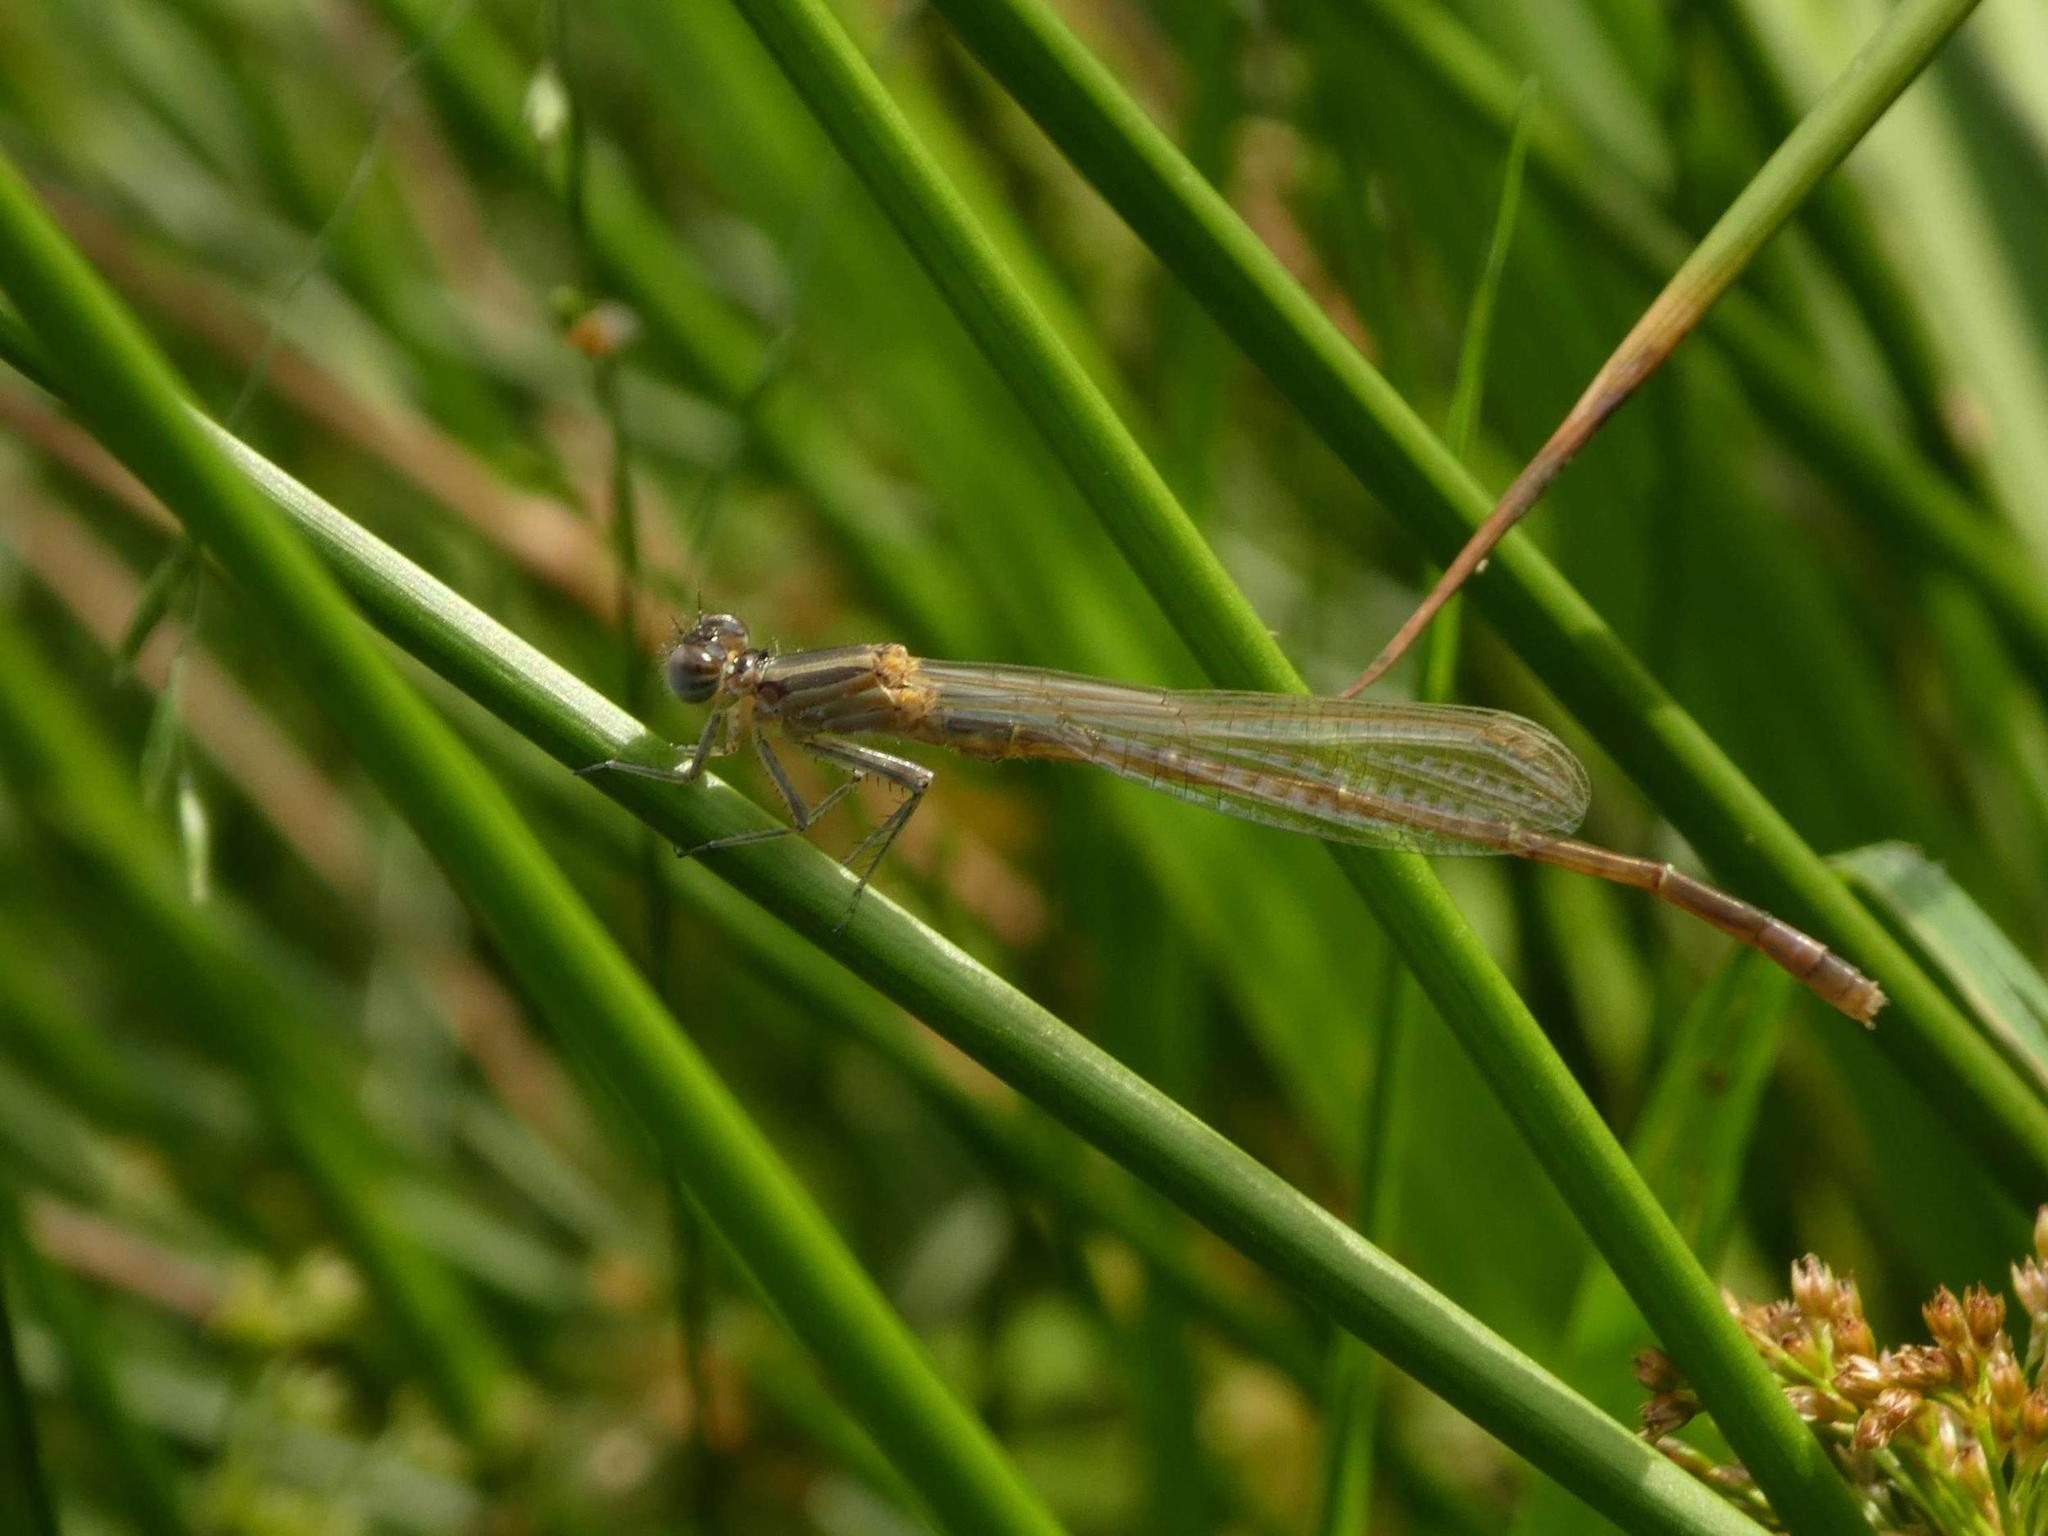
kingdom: Animalia
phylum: Arthropoda
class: Insecta
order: Odonata
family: Coenagrionidae
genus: Ischnura
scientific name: Ischnura elegans
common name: Blue-tailed damselfly
